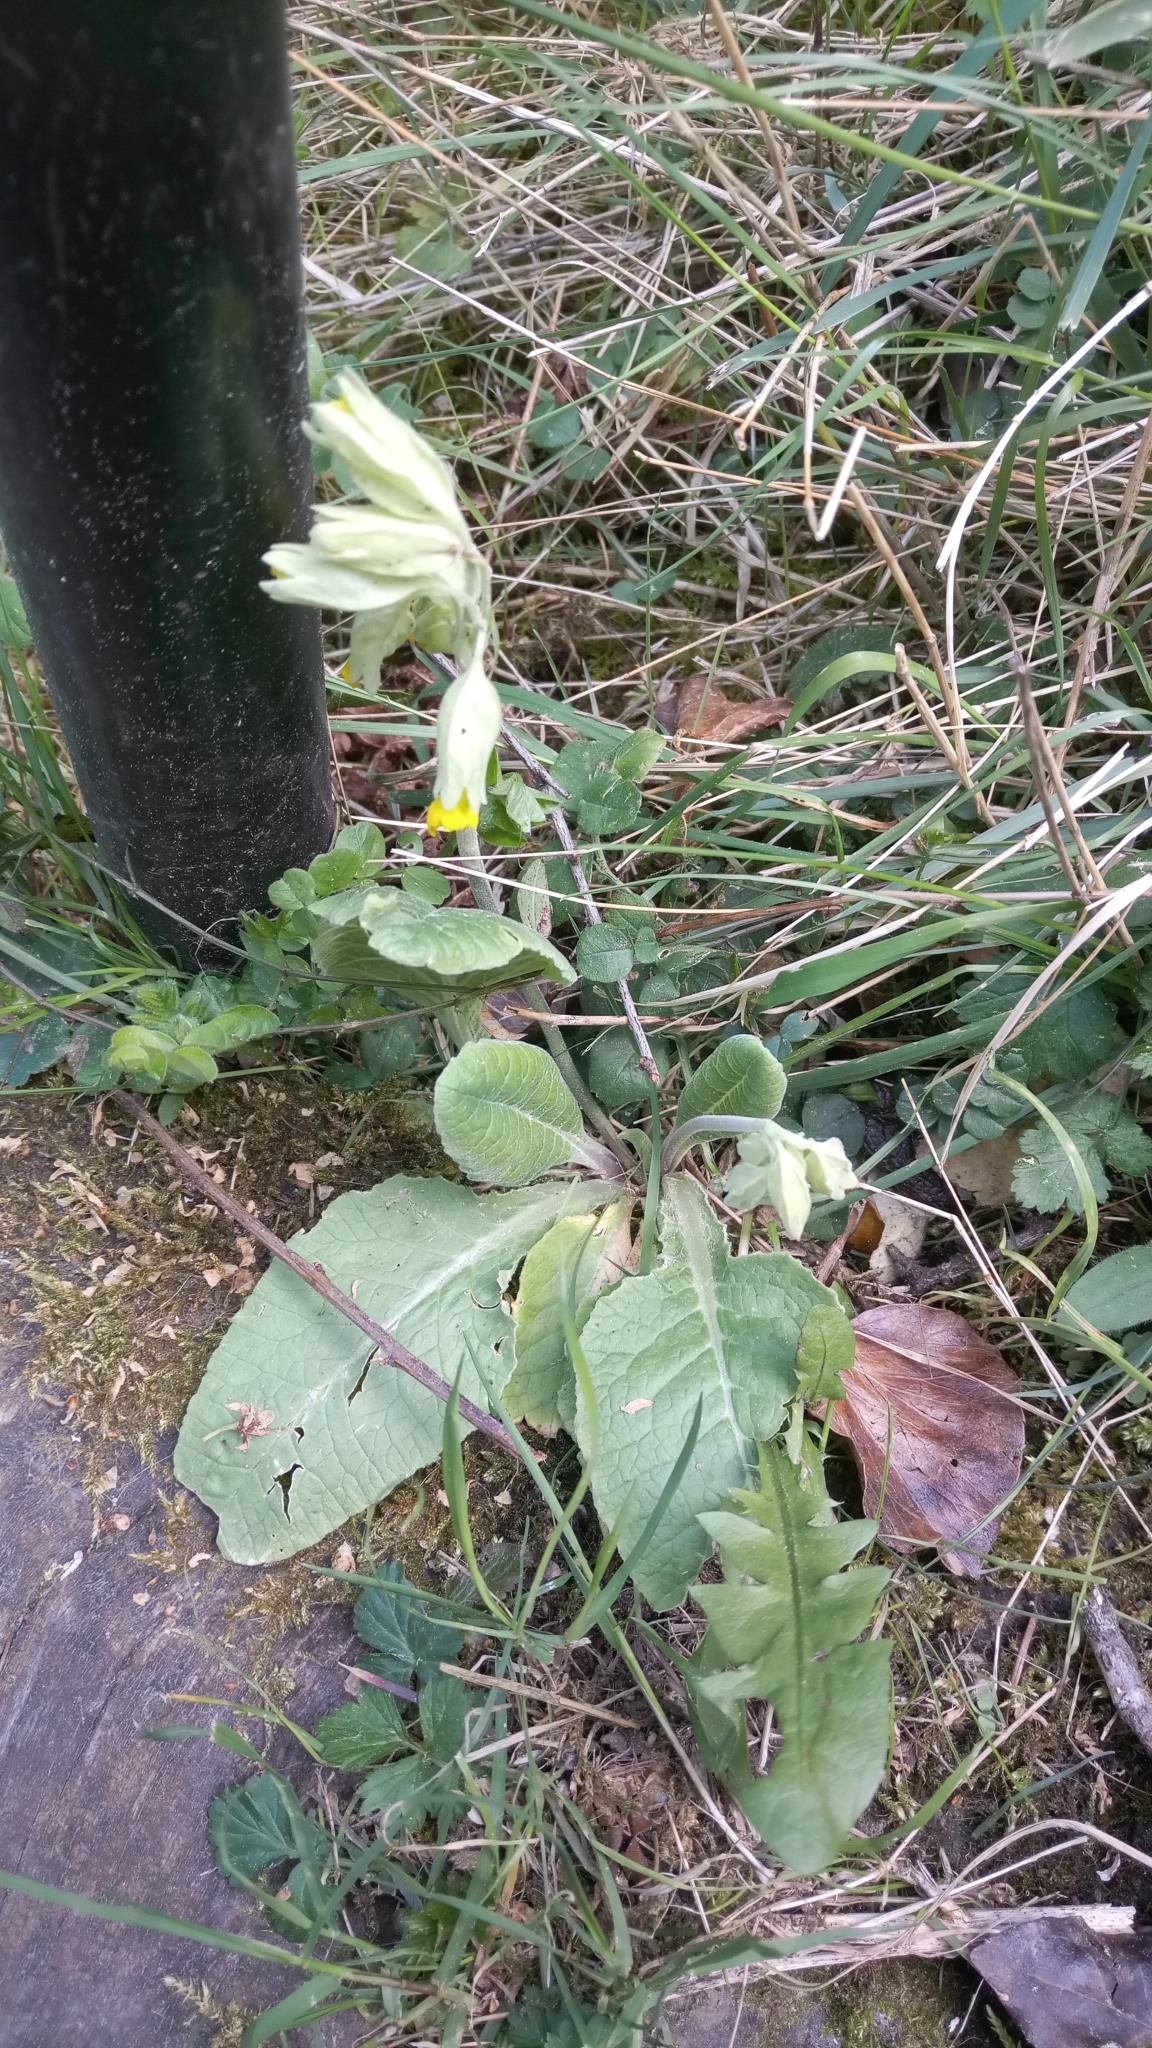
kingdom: Plantae
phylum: Tracheophyta
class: Magnoliopsida
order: Ericales
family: Primulaceae
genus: Primula
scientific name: Primula veris
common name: Cowslip
